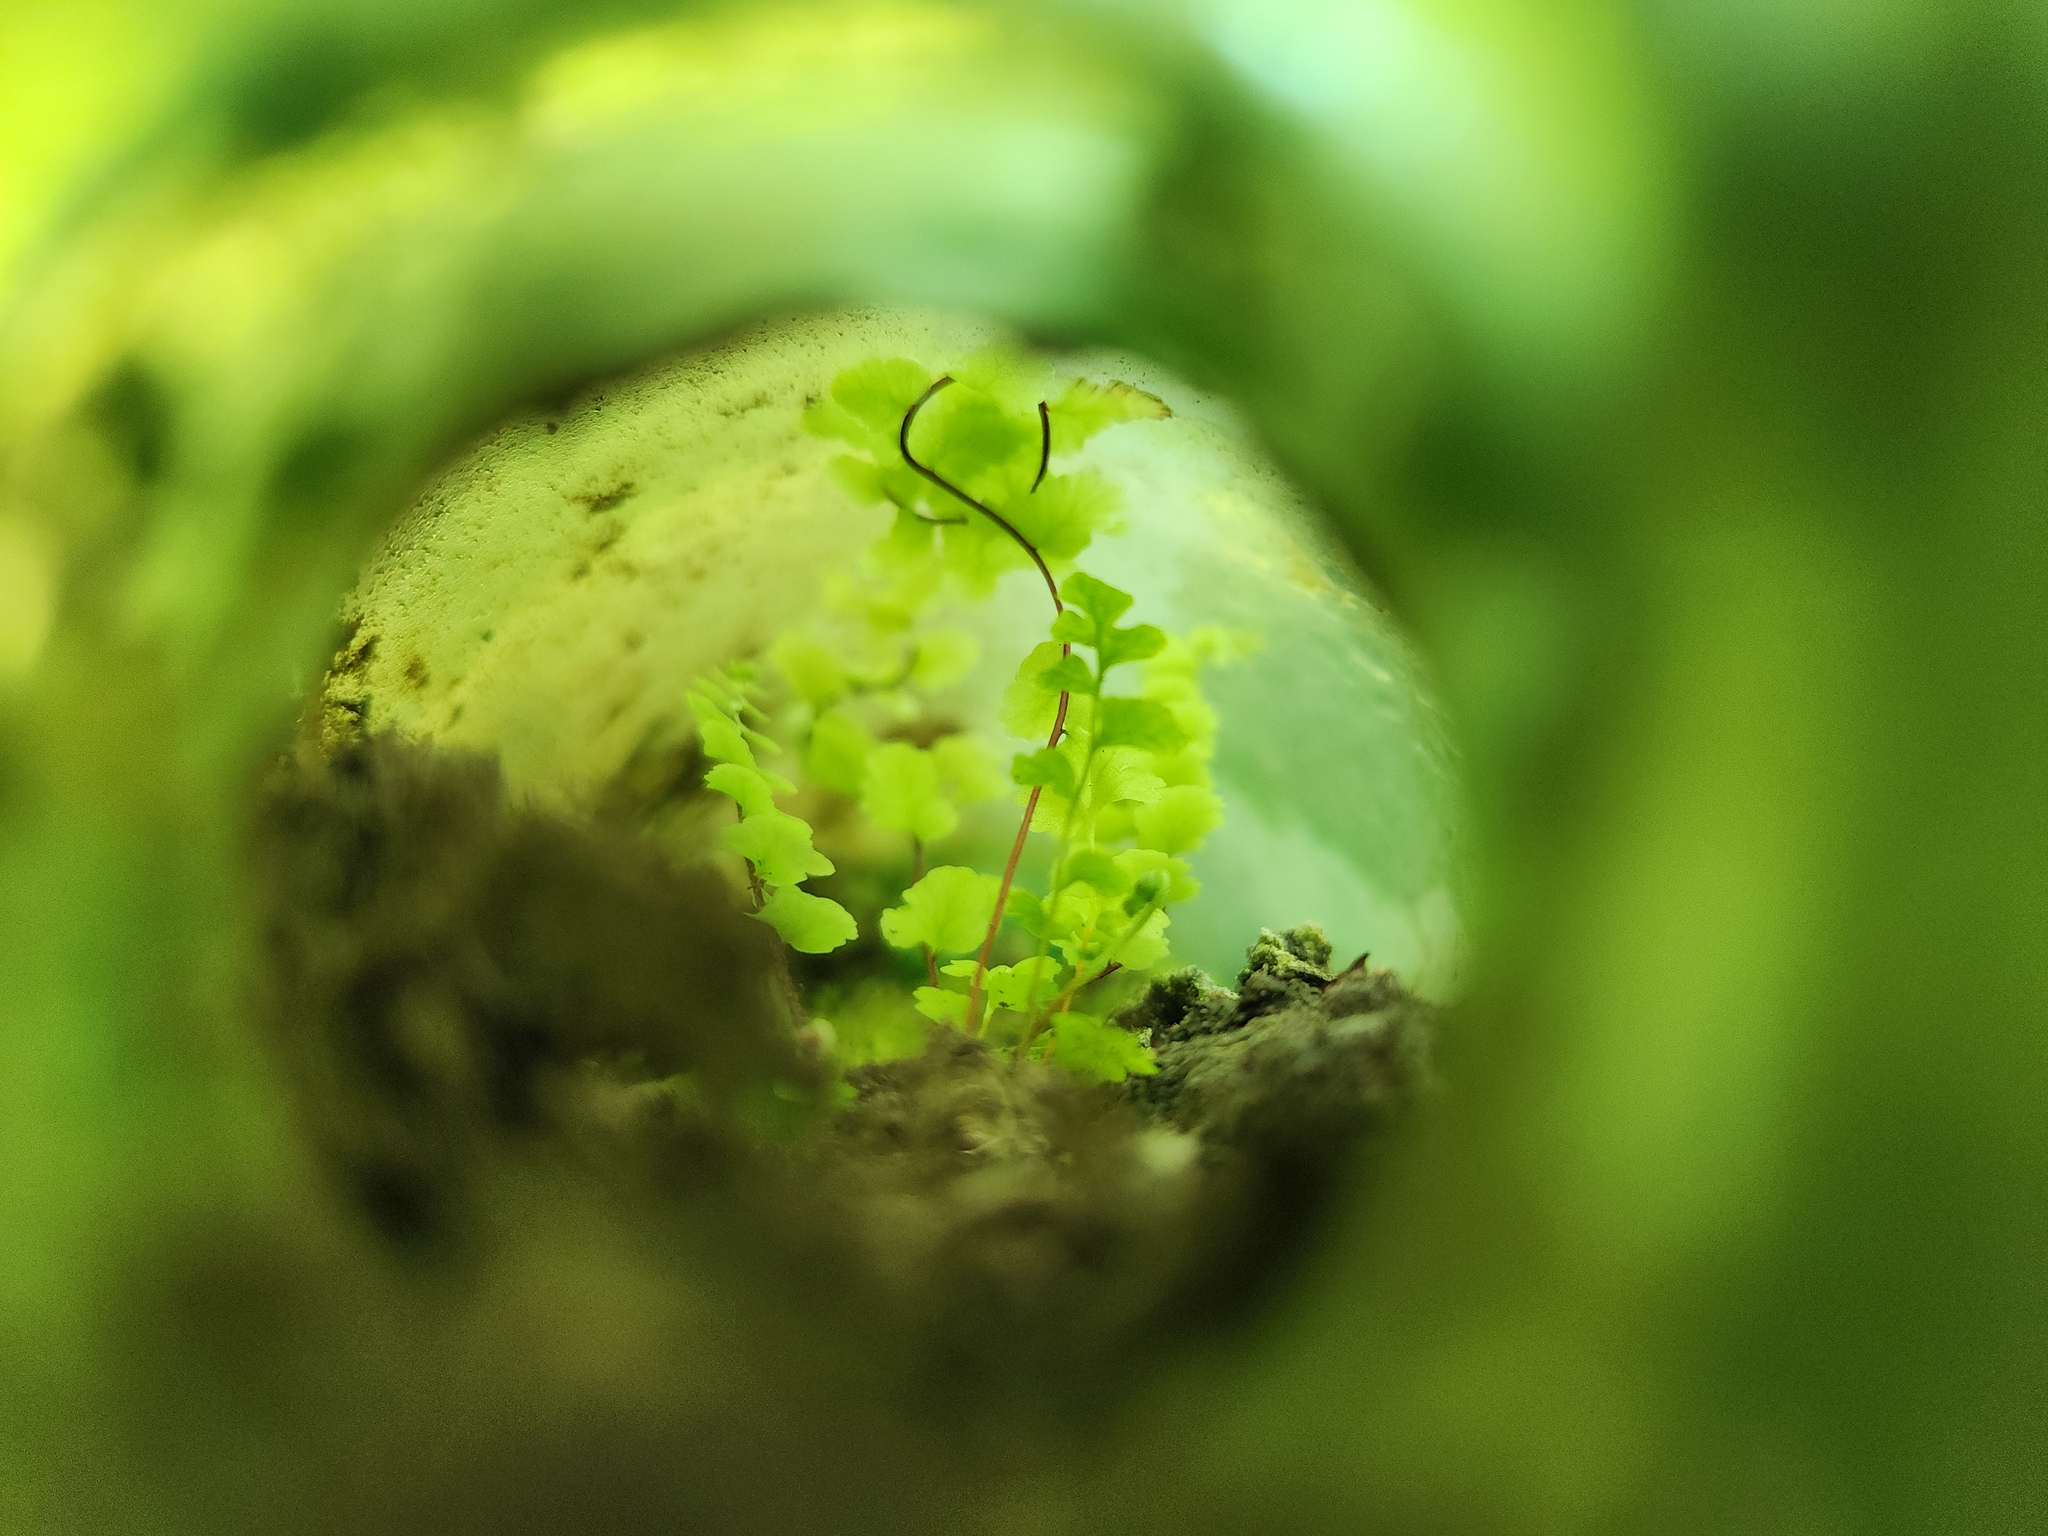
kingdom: Plantae
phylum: Tracheophyta
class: Polypodiopsida
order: Polypodiales
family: Pteridaceae
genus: Adiantum
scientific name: Adiantum pedatum
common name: Five-finger fern
